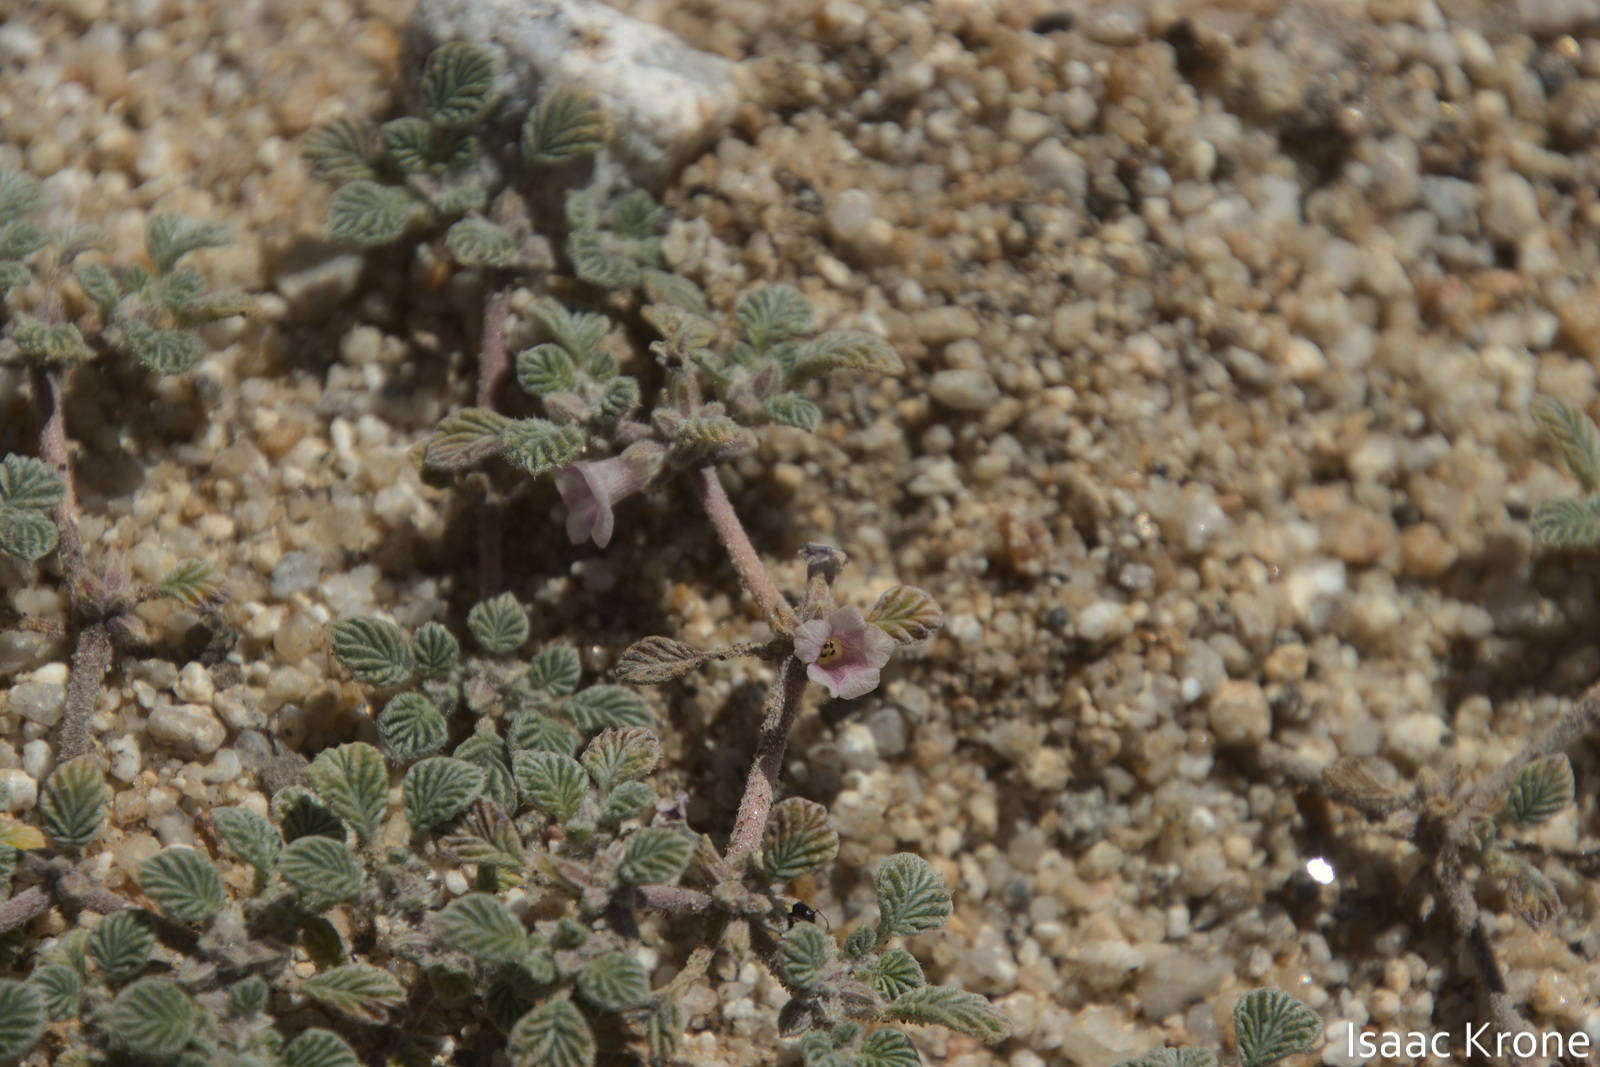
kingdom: Plantae
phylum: Tracheophyta
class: Magnoliopsida
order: Boraginales
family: Ehretiaceae
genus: Tiquilia
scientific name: Tiquilia plicata
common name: Fan-leaf tiquilia
